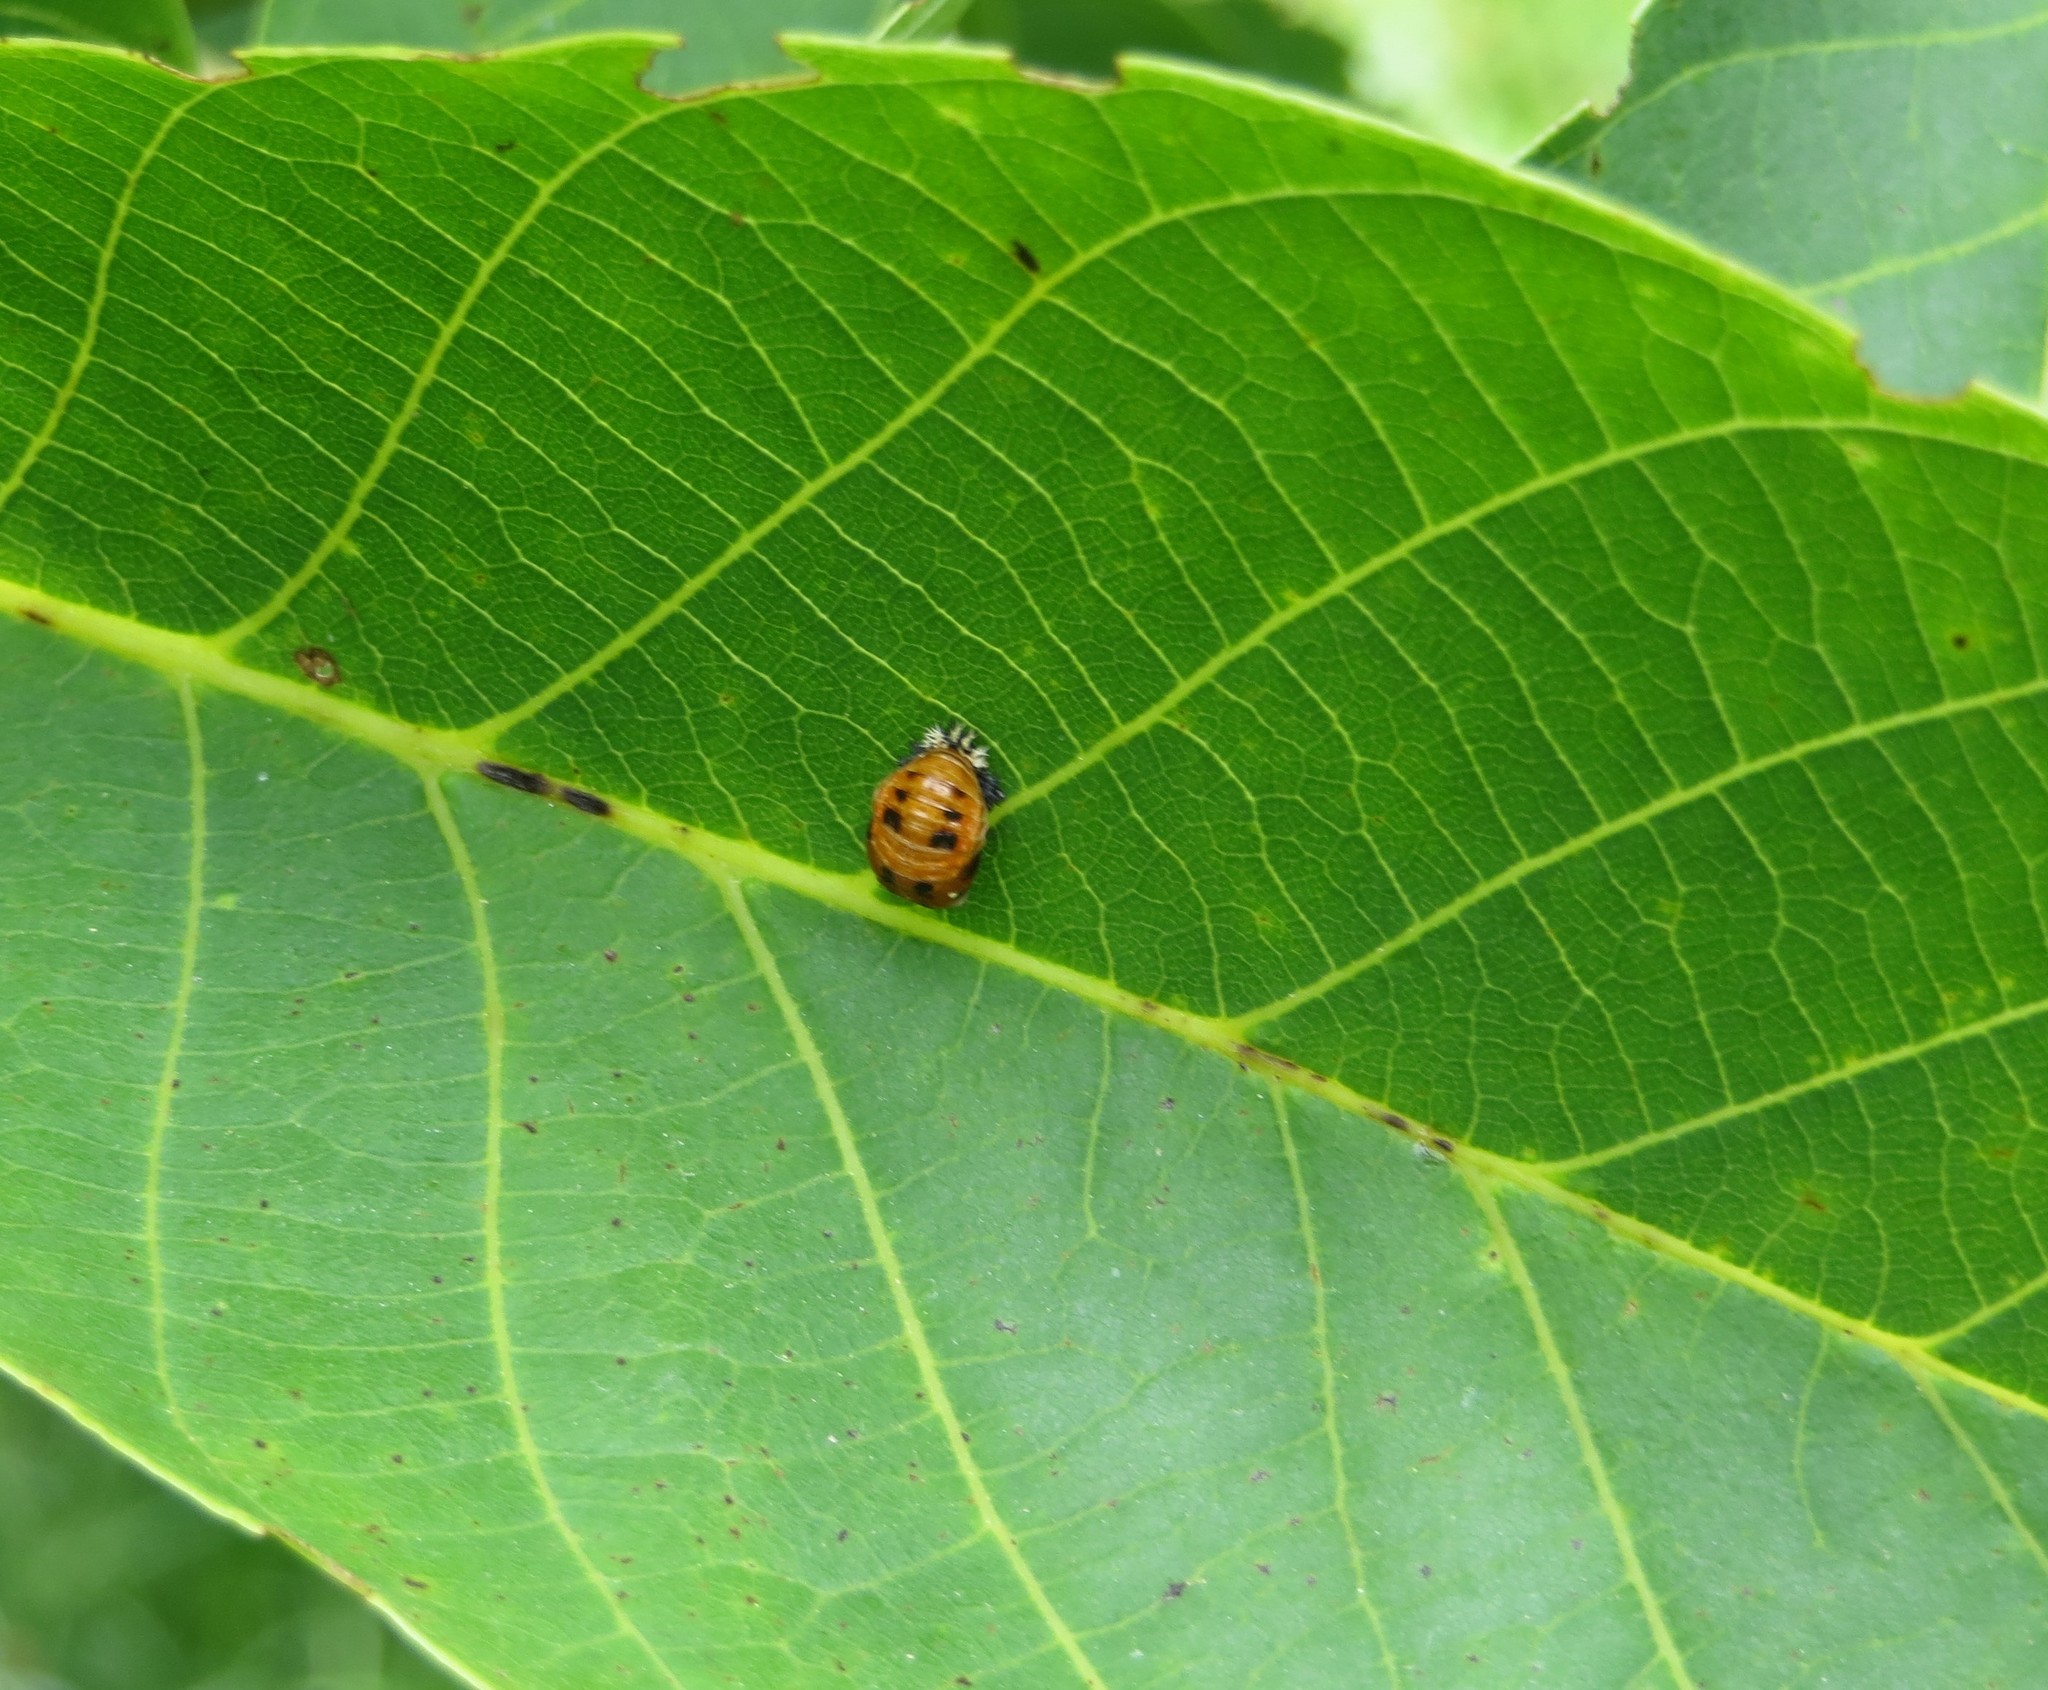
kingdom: Animalia
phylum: Arthropoda
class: Insecta
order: Coleoptera
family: Coccinellidae
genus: Harmonia
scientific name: Harmonia axyridis
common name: Harlequin ladybird
